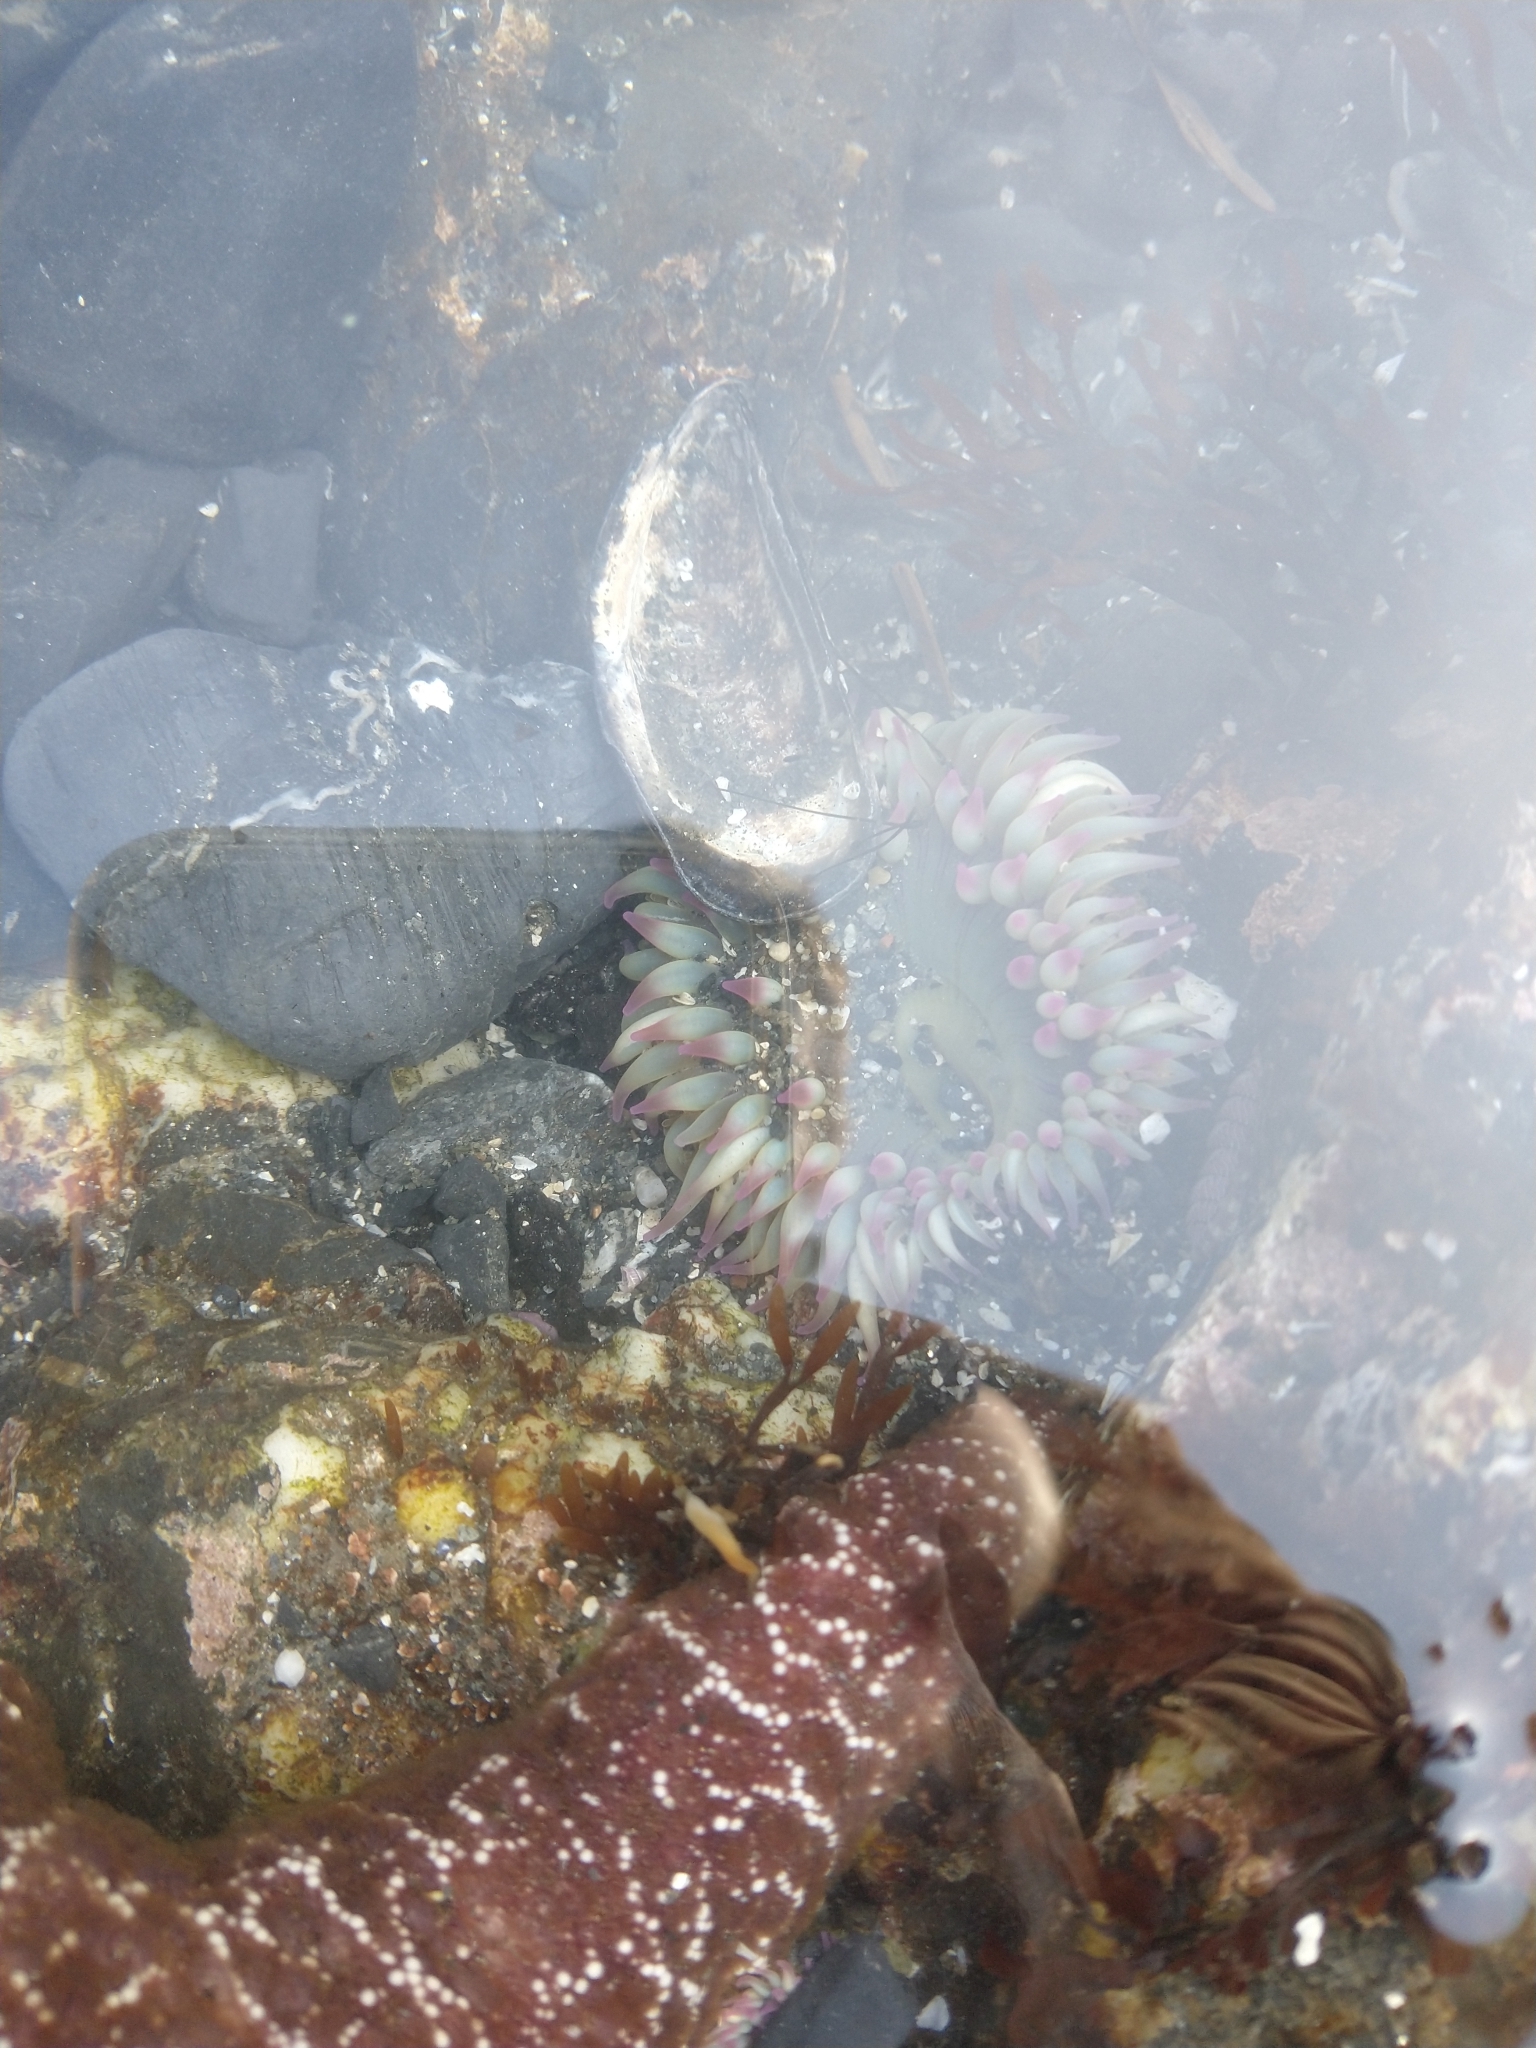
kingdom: Animalia
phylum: Cnidaria
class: Anthozoa
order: Actiniaria
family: Actiniidae
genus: Anthopleura
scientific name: Anthopleura elegantissima
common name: Clonal anemone
